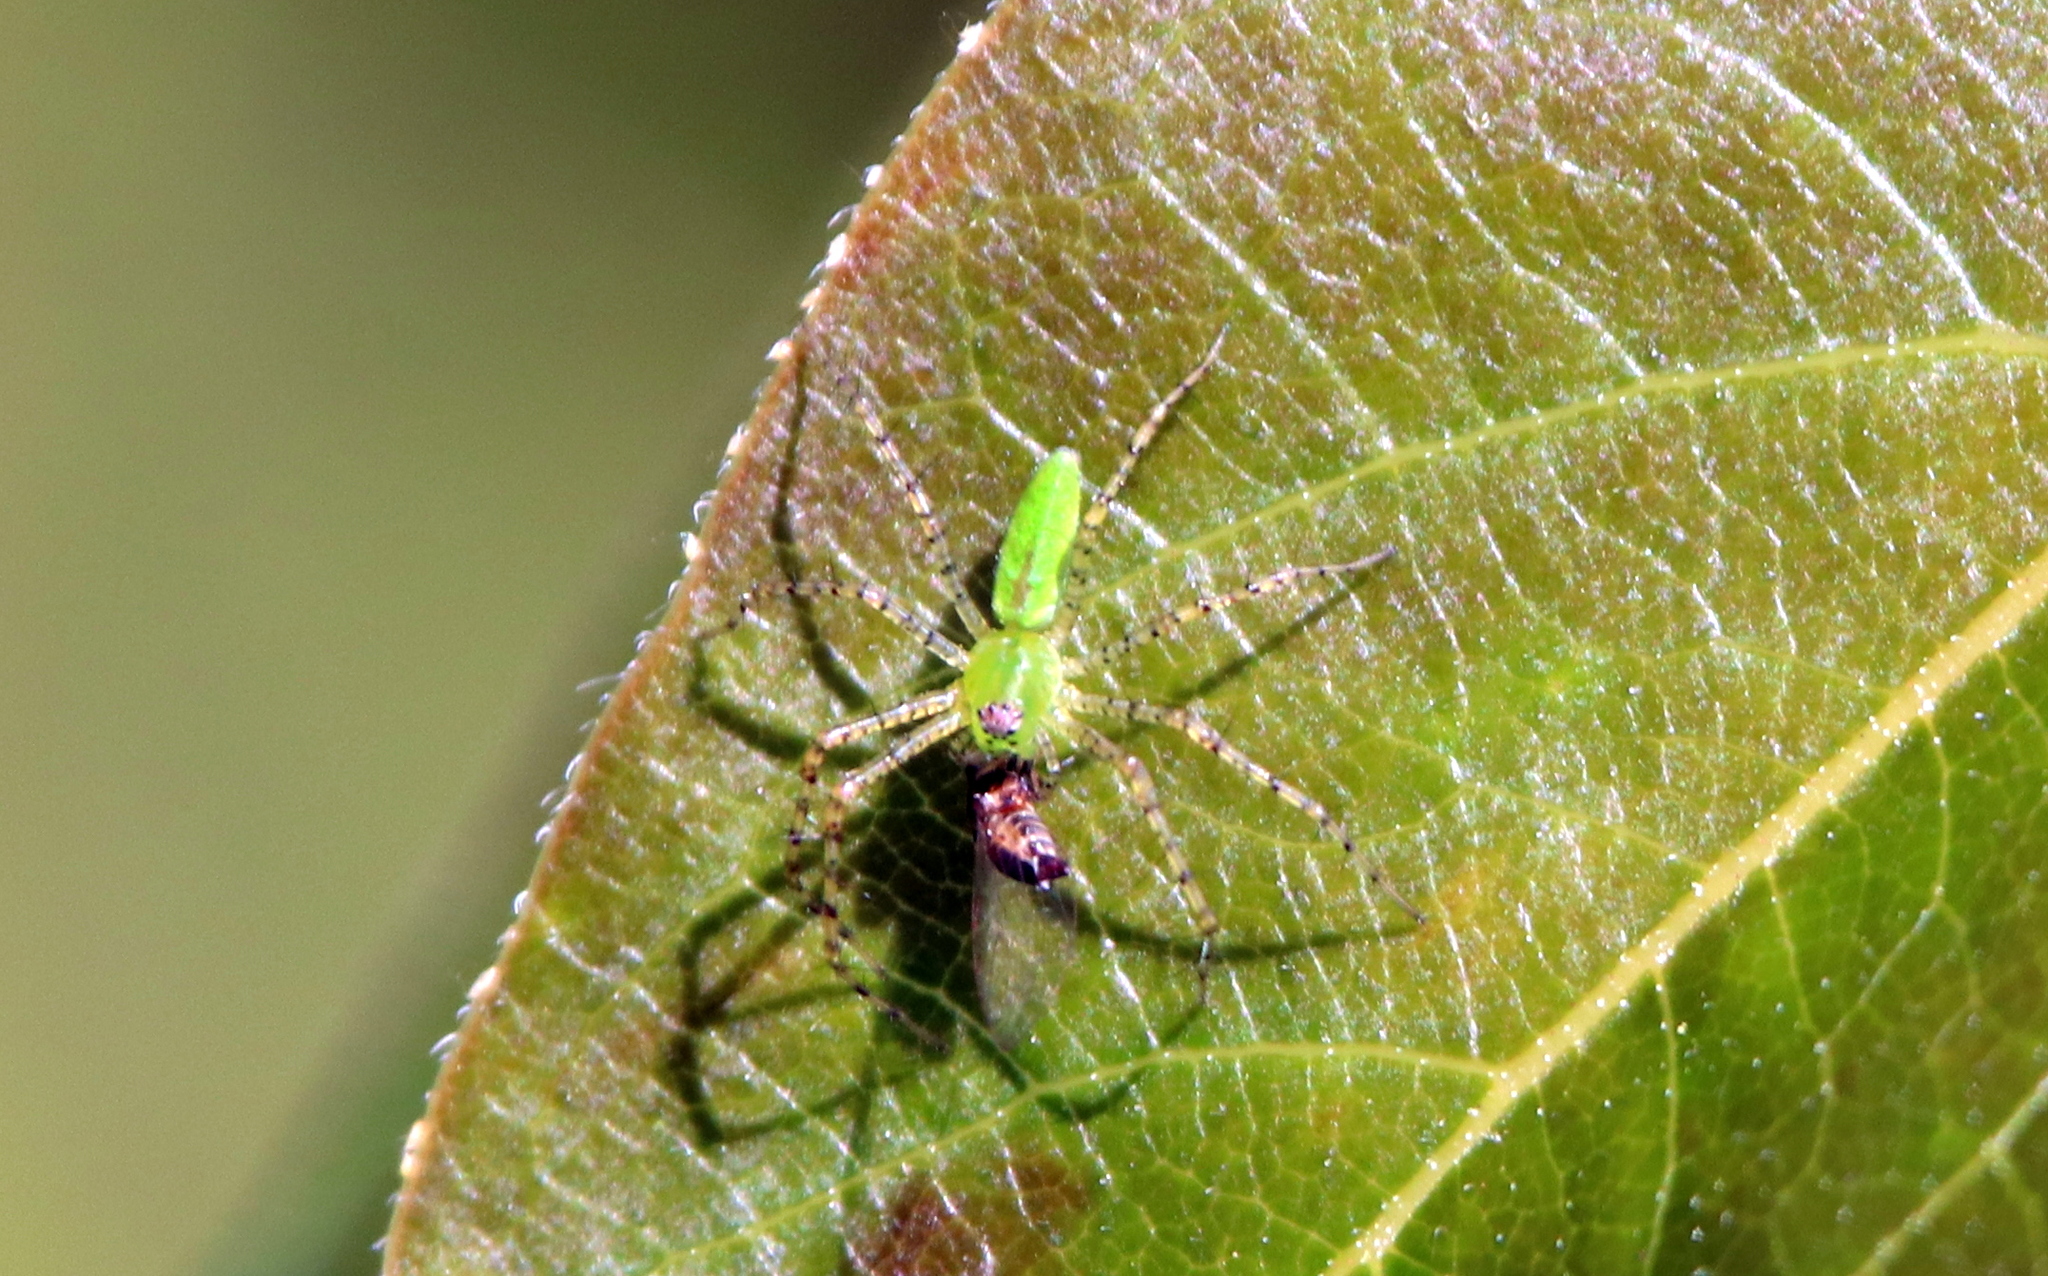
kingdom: Animalia
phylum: Arthropoda
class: Arachnida
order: Araneae
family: Salticidae
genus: Lyssomanes
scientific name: Lyssomanes viridis
